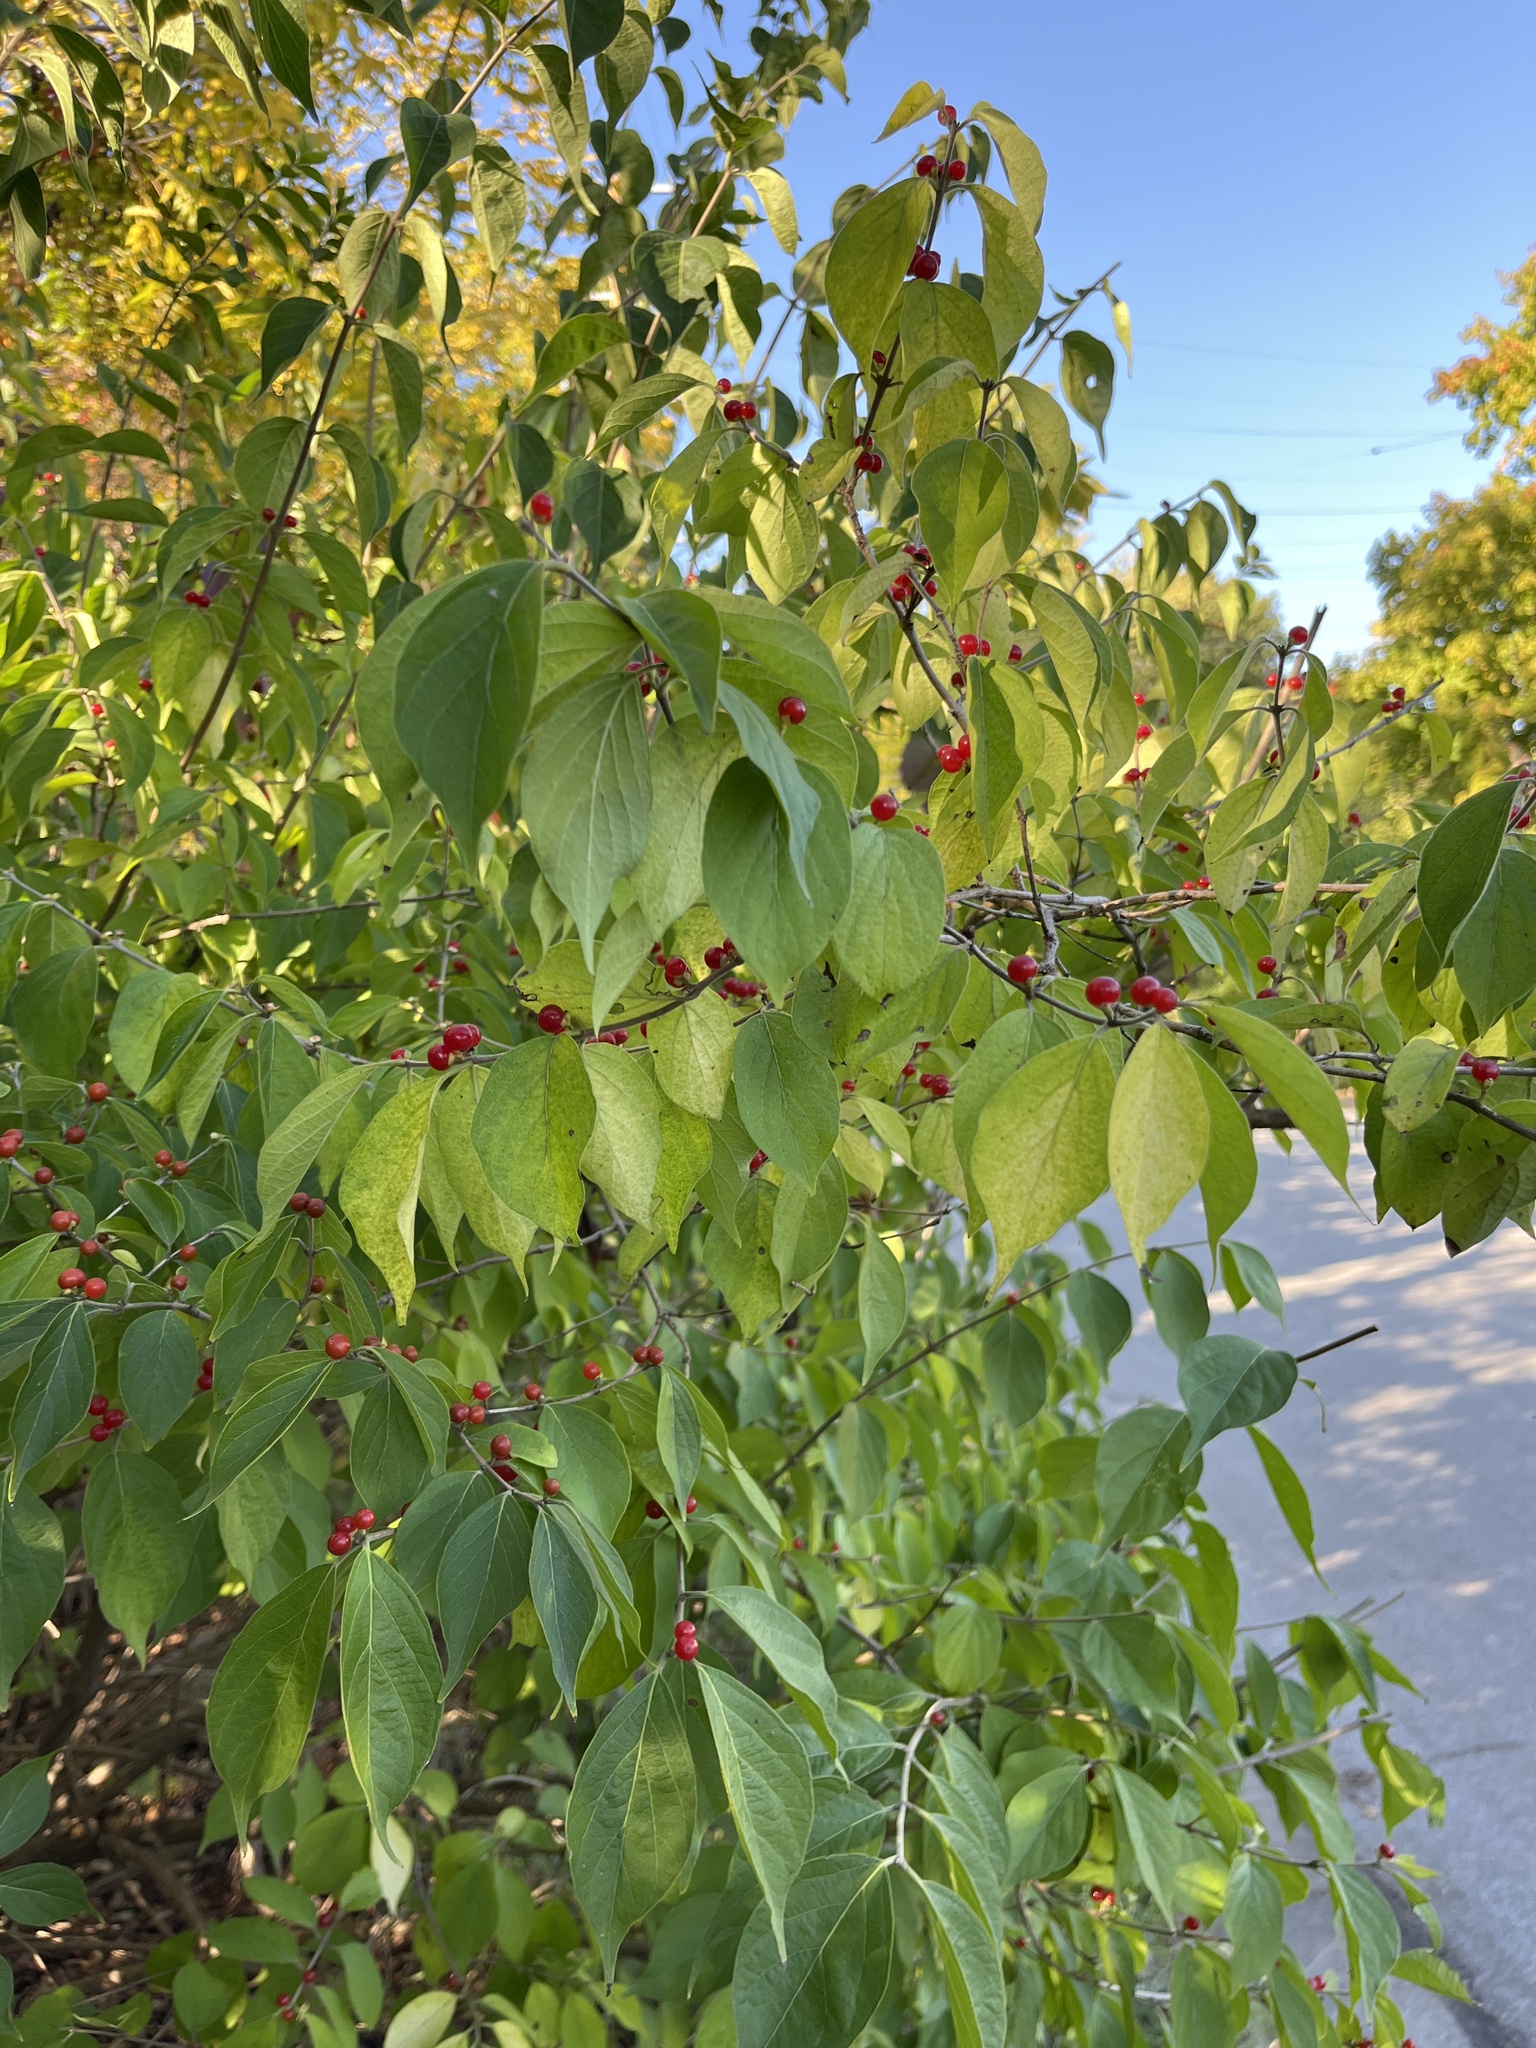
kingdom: Plantae
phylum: Tracheophyta
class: Magnoliopsida
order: Dipsacales
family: Caprifoliaceae
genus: Lonicera
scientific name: Lonicera maackii
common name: Amur honeysuckle
